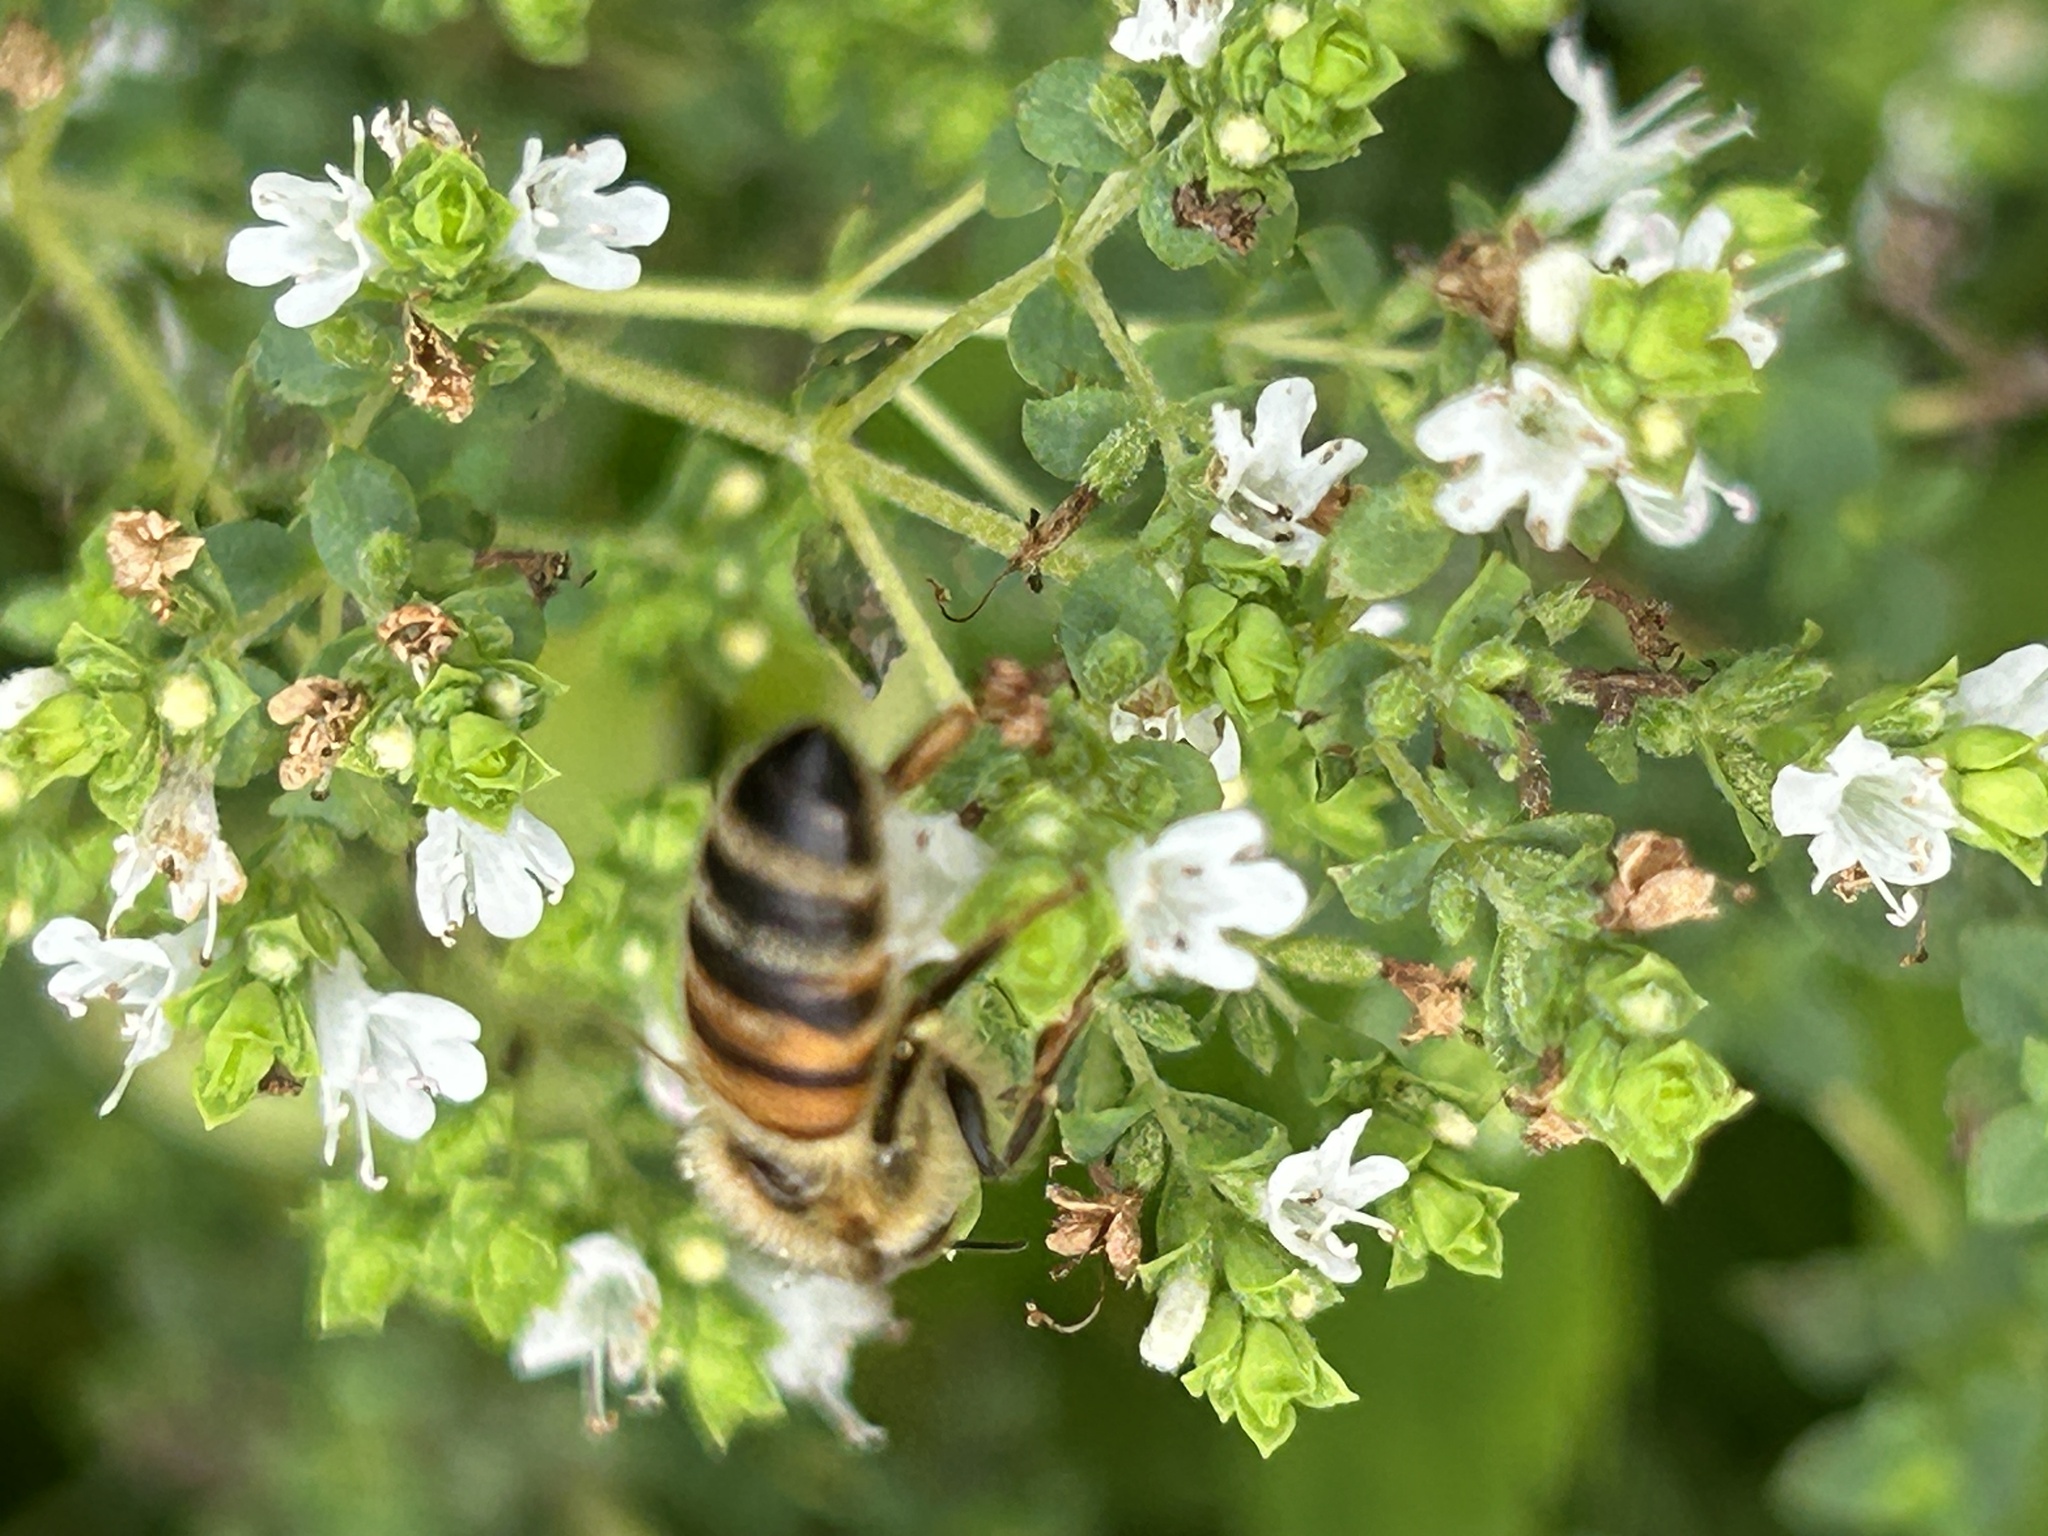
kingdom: Animalia
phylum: Arthropoda
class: Insecta
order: Hymenoptera
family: Apidae
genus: Apis
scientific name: Apis mellifera
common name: Honey bee
